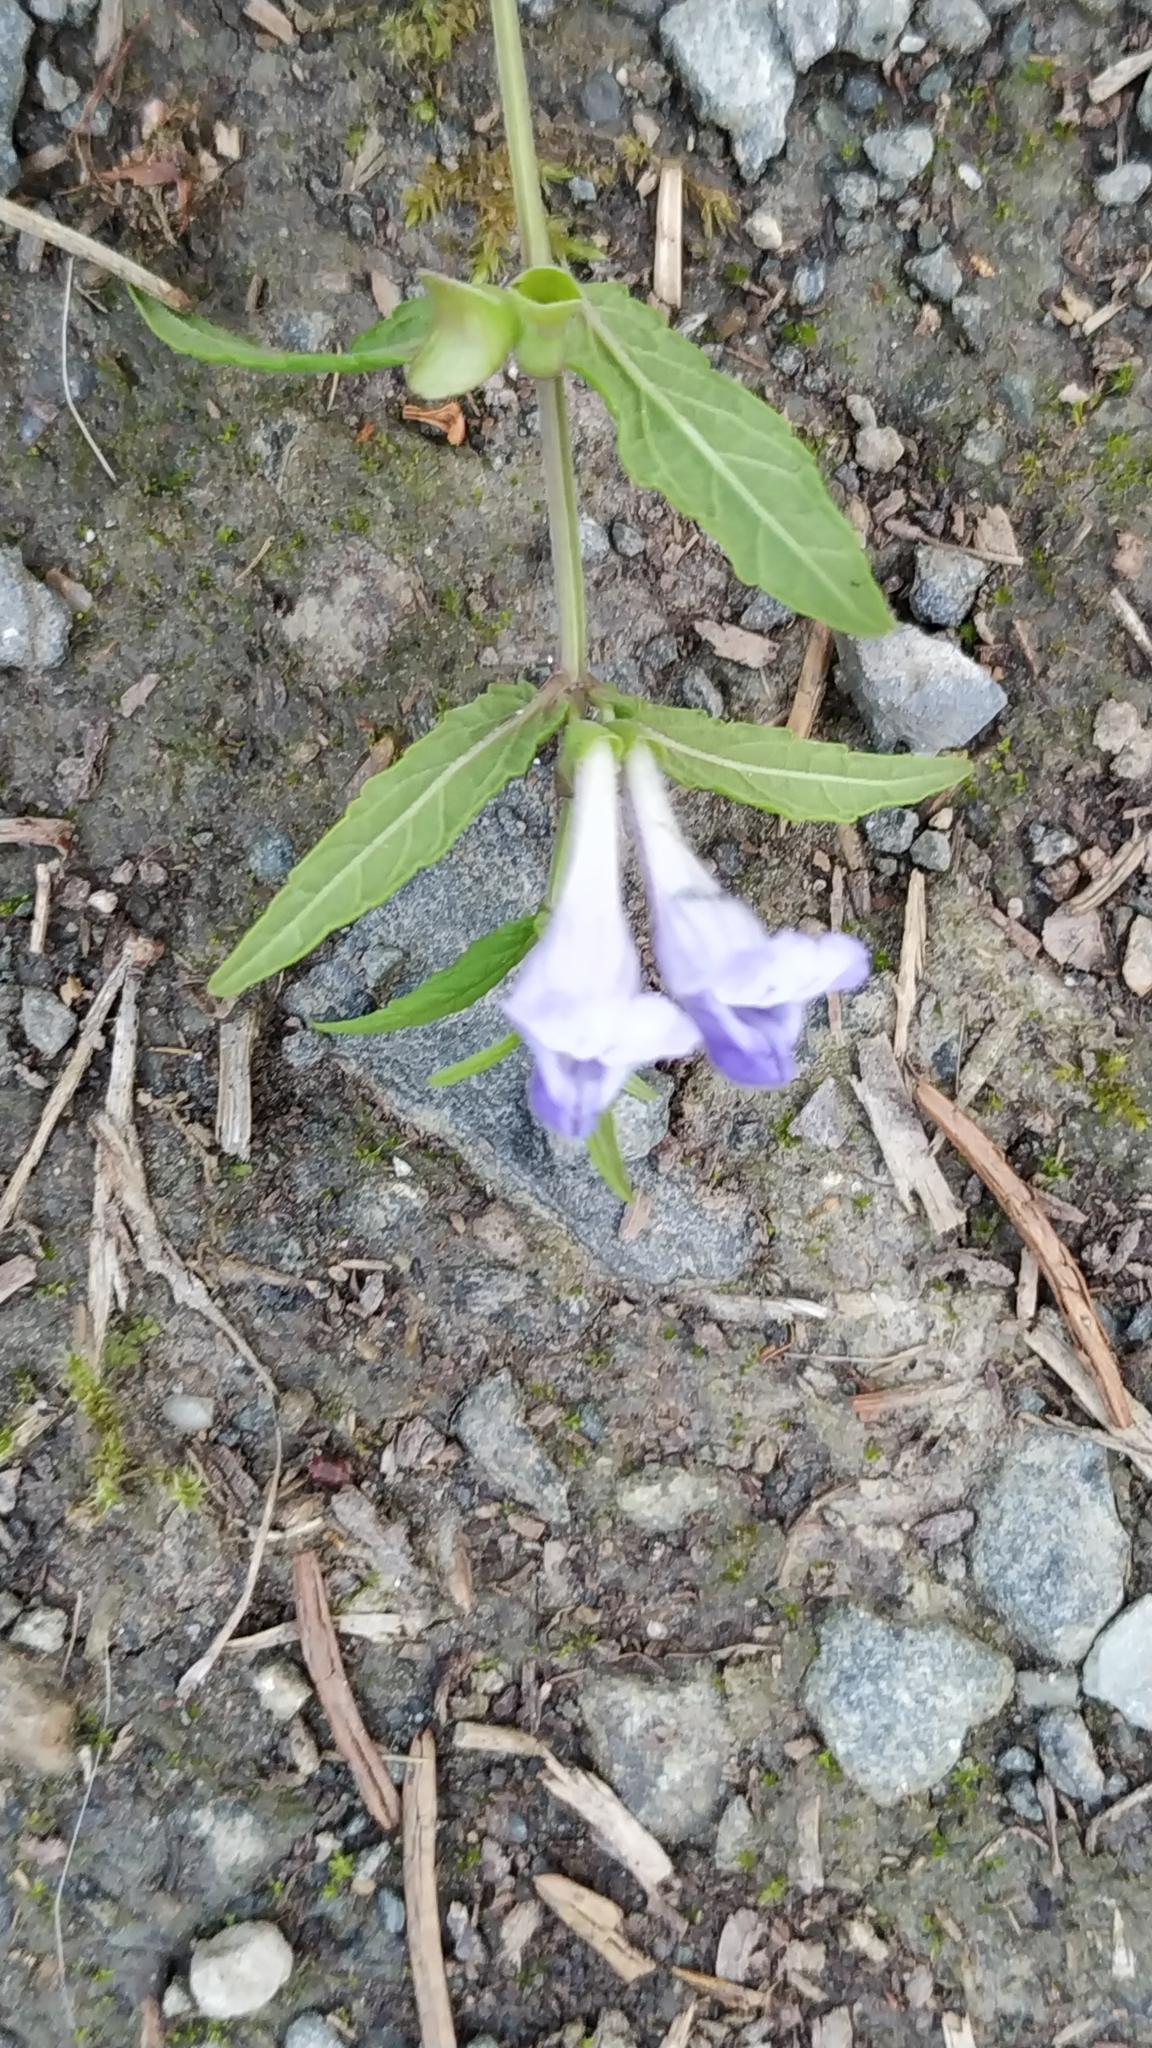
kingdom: Plantae
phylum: Tracheophyta
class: Magnoliopsida
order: Lamiales
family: Lamiaceae
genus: Scutellaria
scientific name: Scutellaria galericulata
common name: Skullcap
